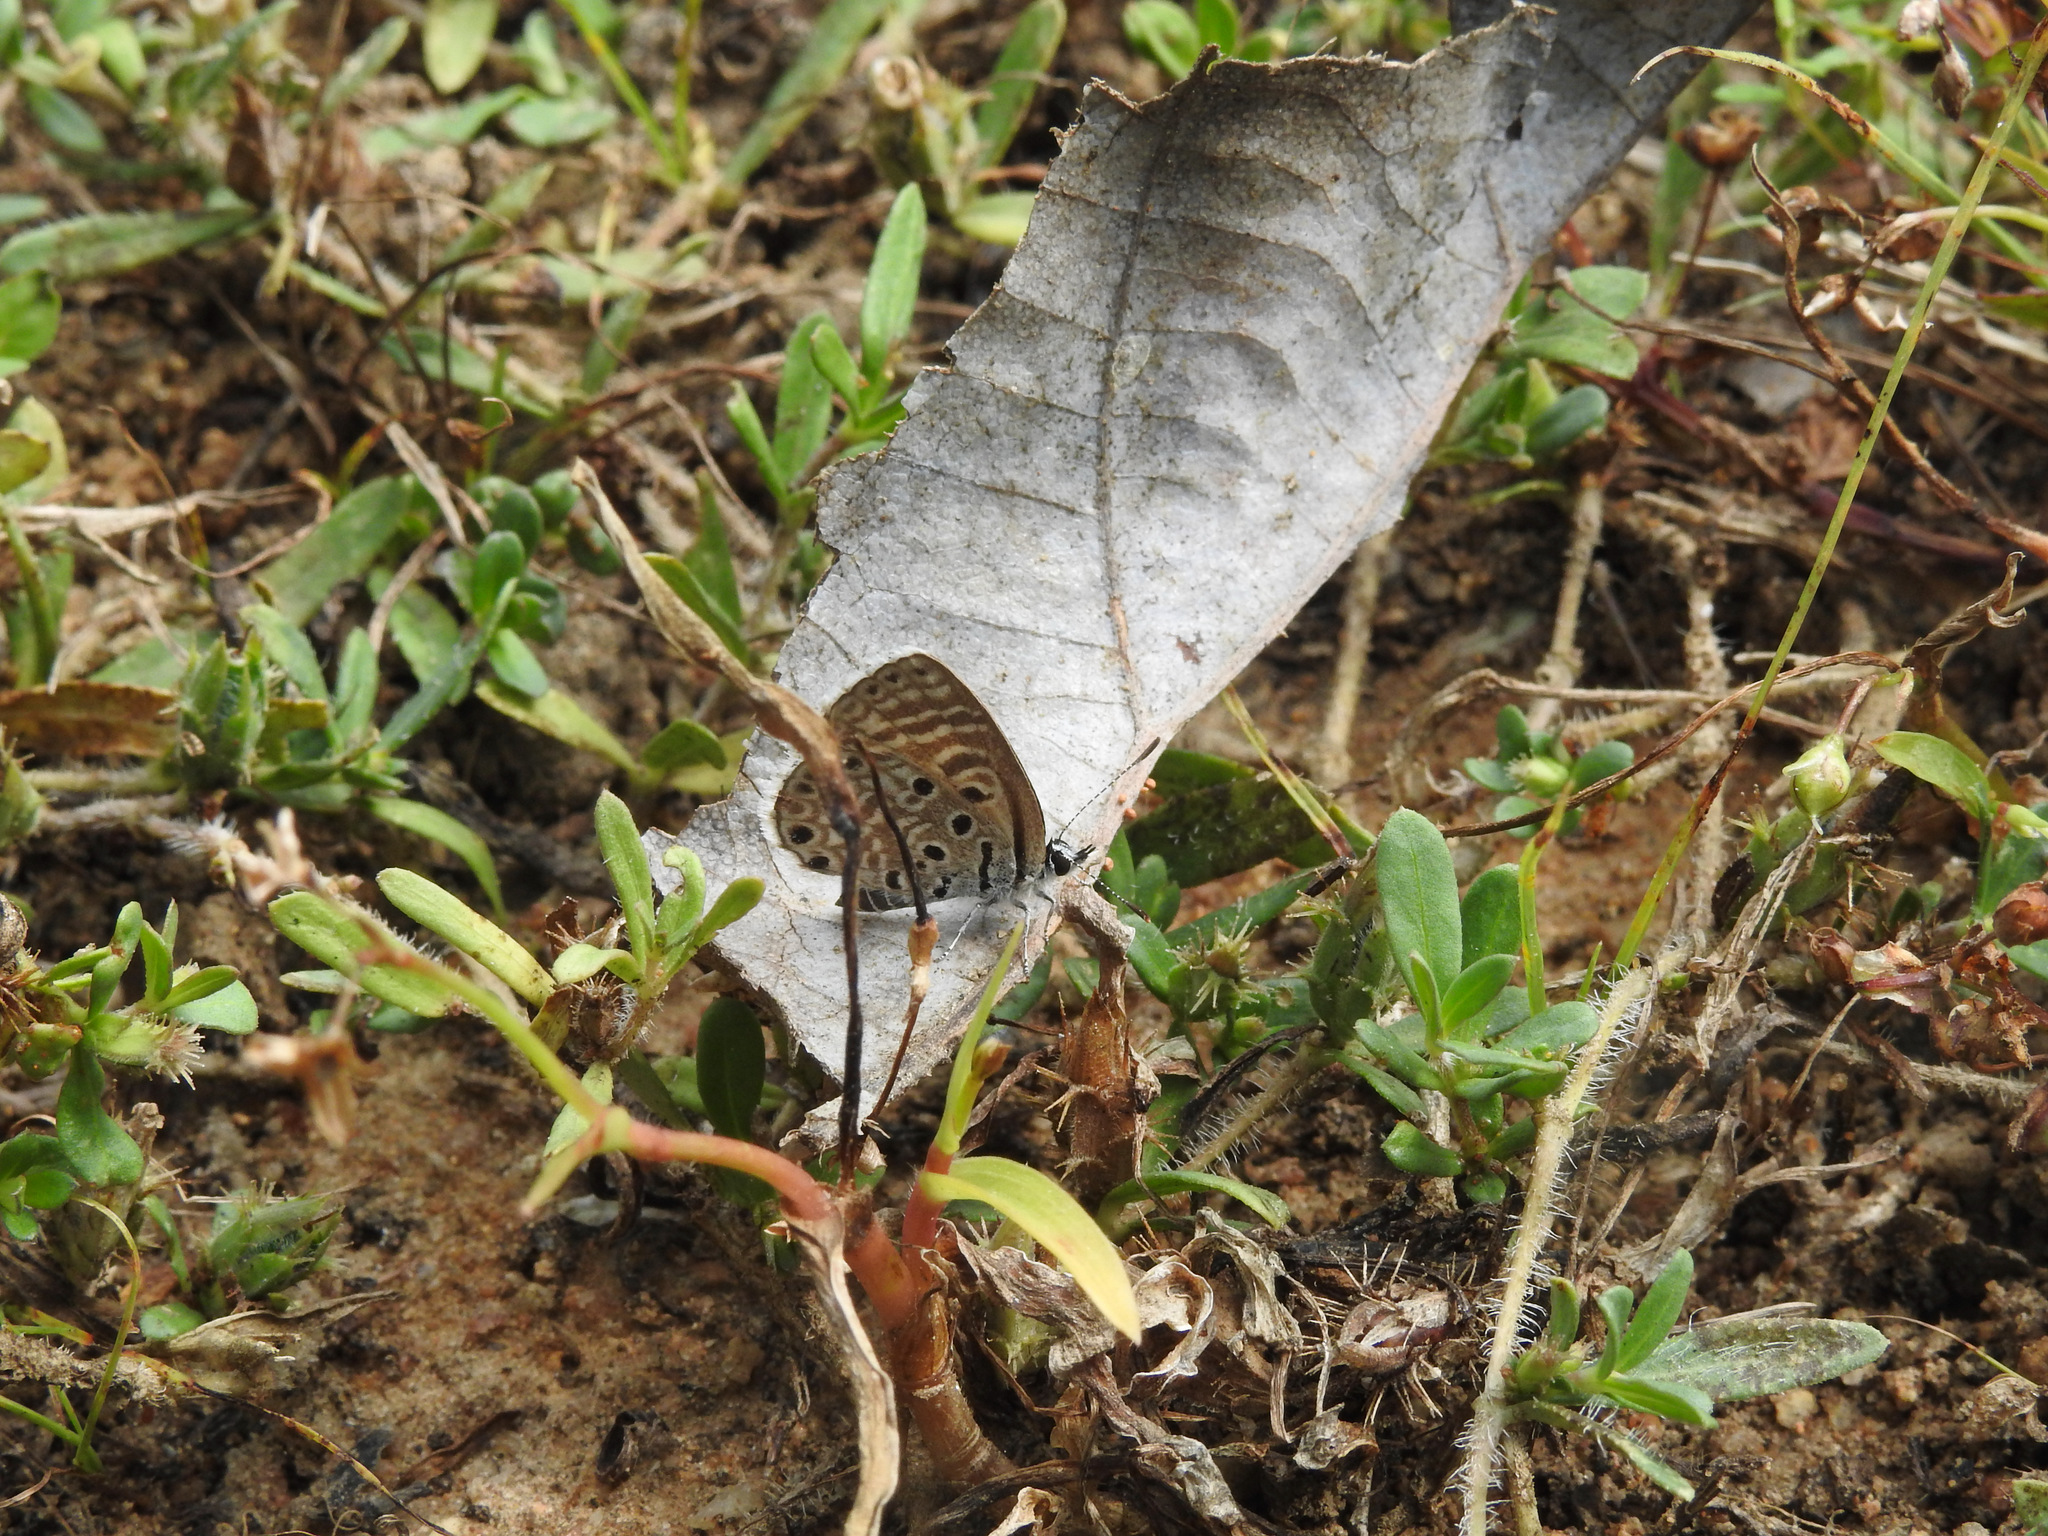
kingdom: Animalia
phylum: Arthropoda
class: Insecta
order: Lepidoptera
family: Lycaenidae
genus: Azanus
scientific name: Azanus jesous
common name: African babul blue
